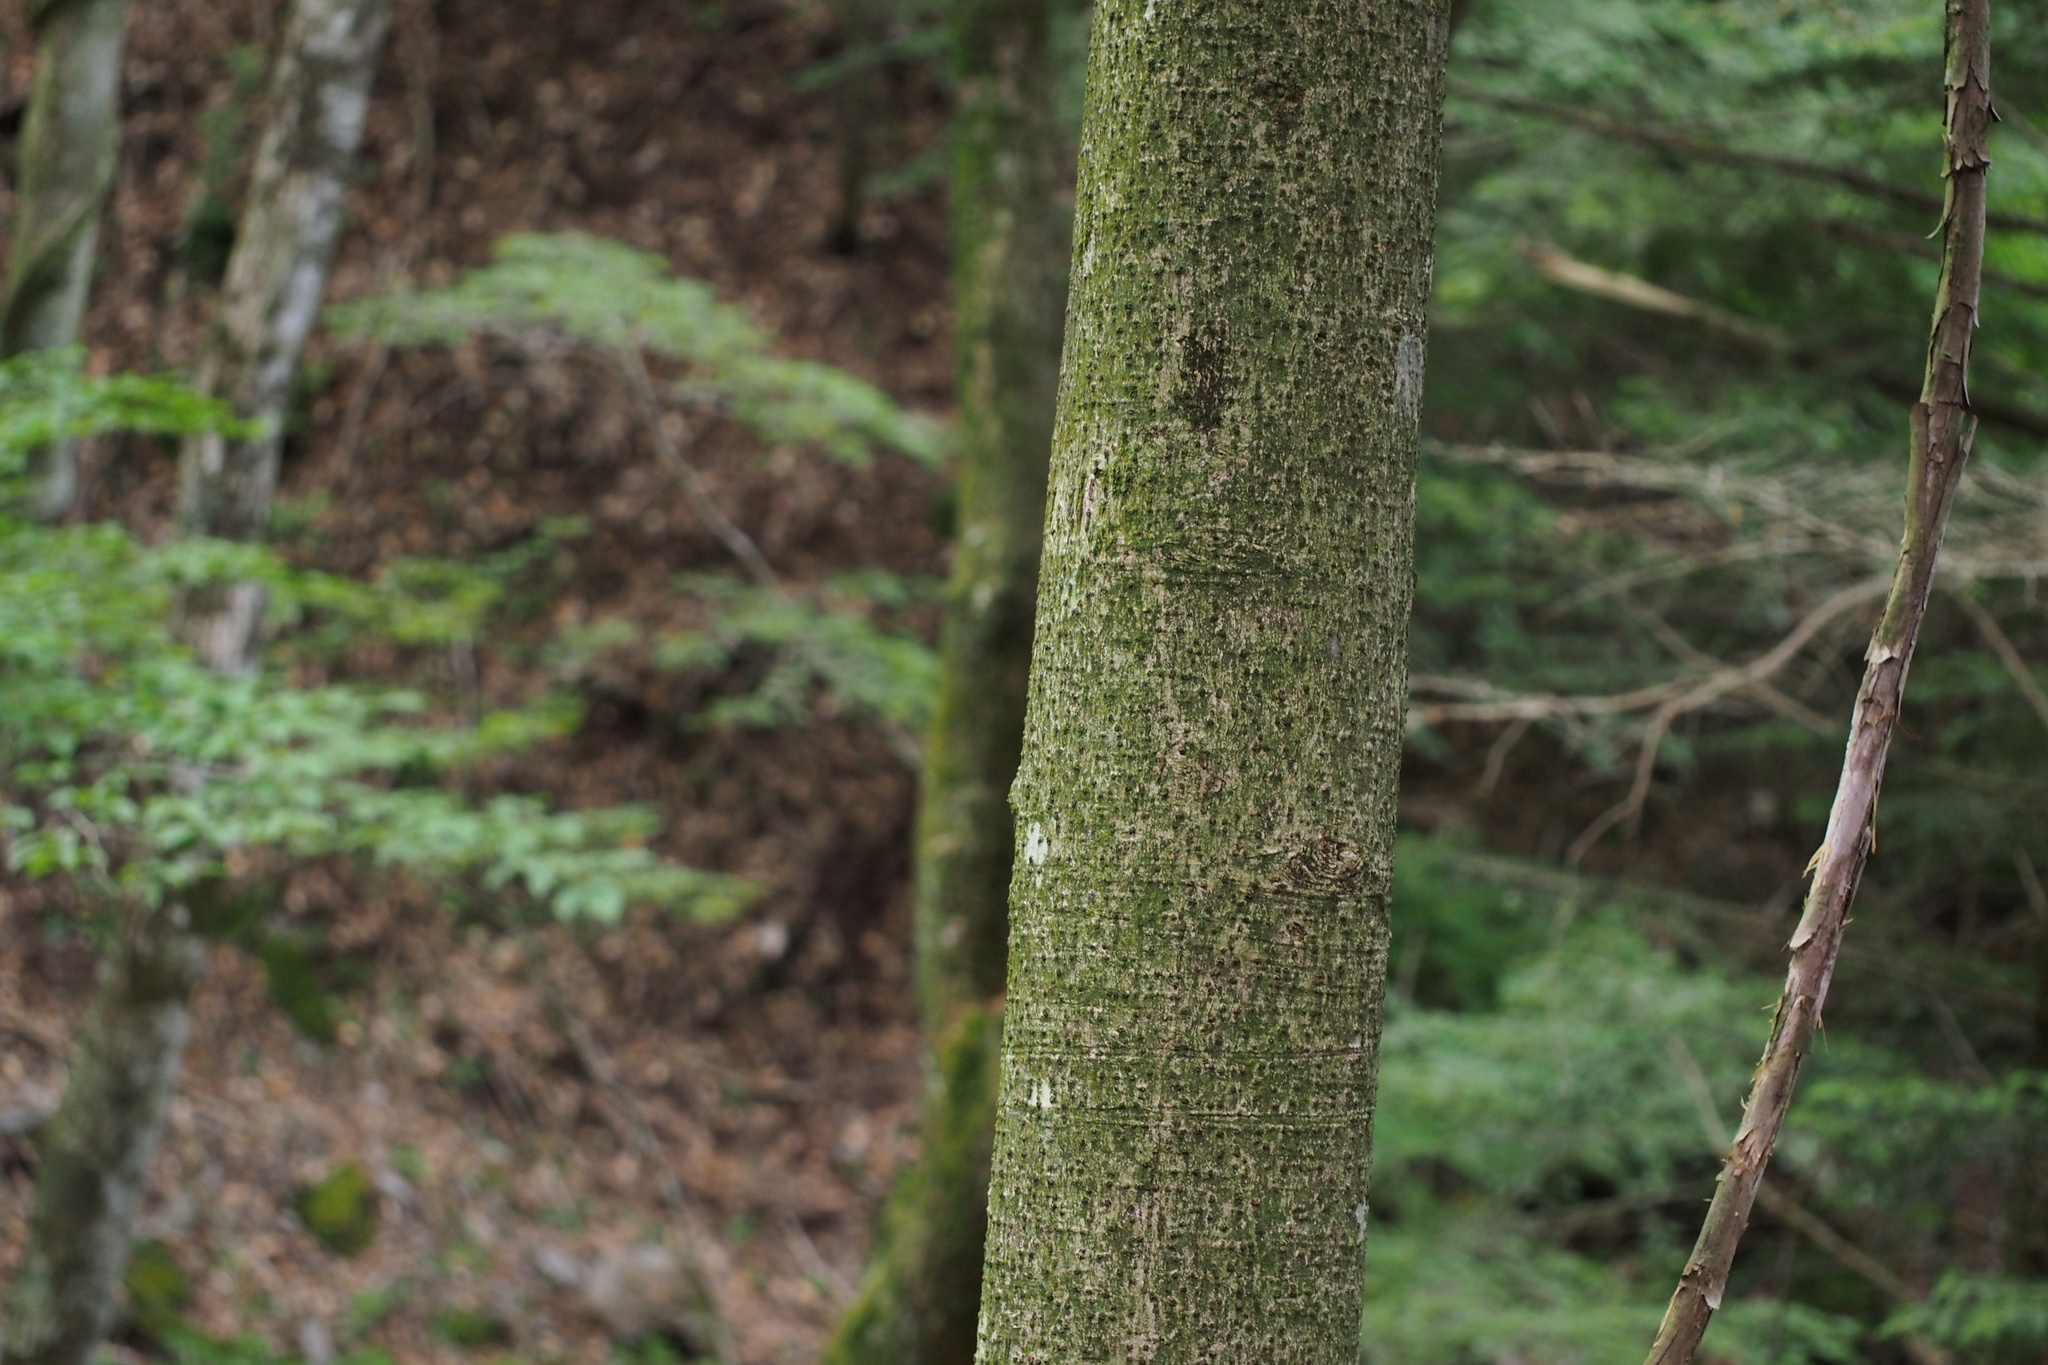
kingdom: Plantae
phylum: Tracheophyta
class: Magnoliopsida
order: Magnoliales
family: Magnoliaceae
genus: Magnolia
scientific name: Magnolia obovata
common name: Japanese whitebark magnolia
